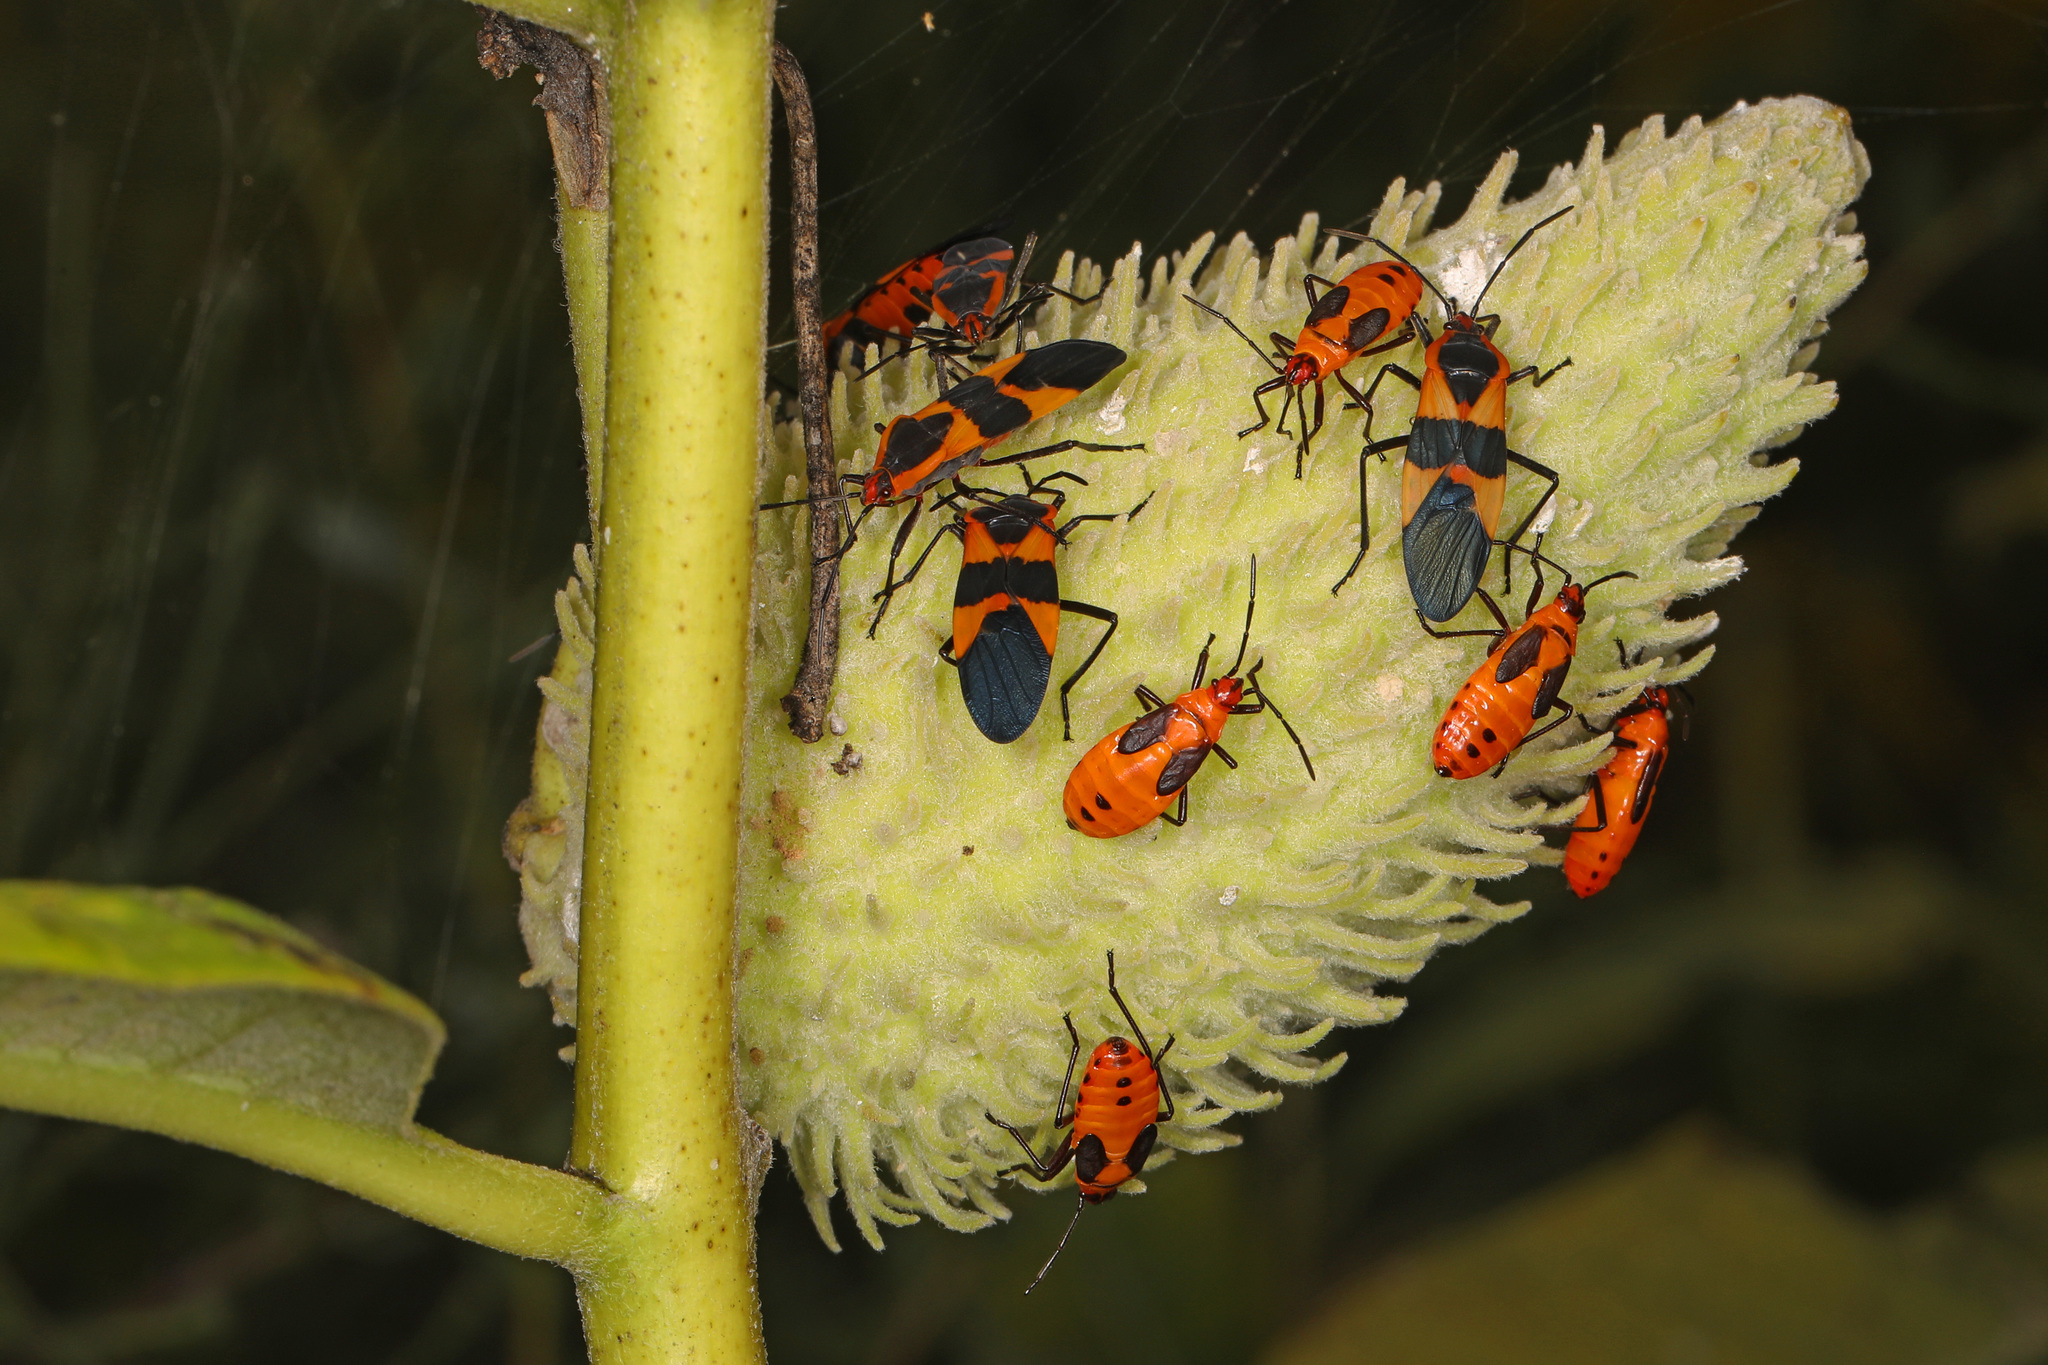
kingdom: Animalia
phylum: Arthropoda
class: Insecta
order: Hemiptera
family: Lygaeidae
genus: Oncopeltus
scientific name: Oncopeltus fasciatus
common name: Large milkweed bug
